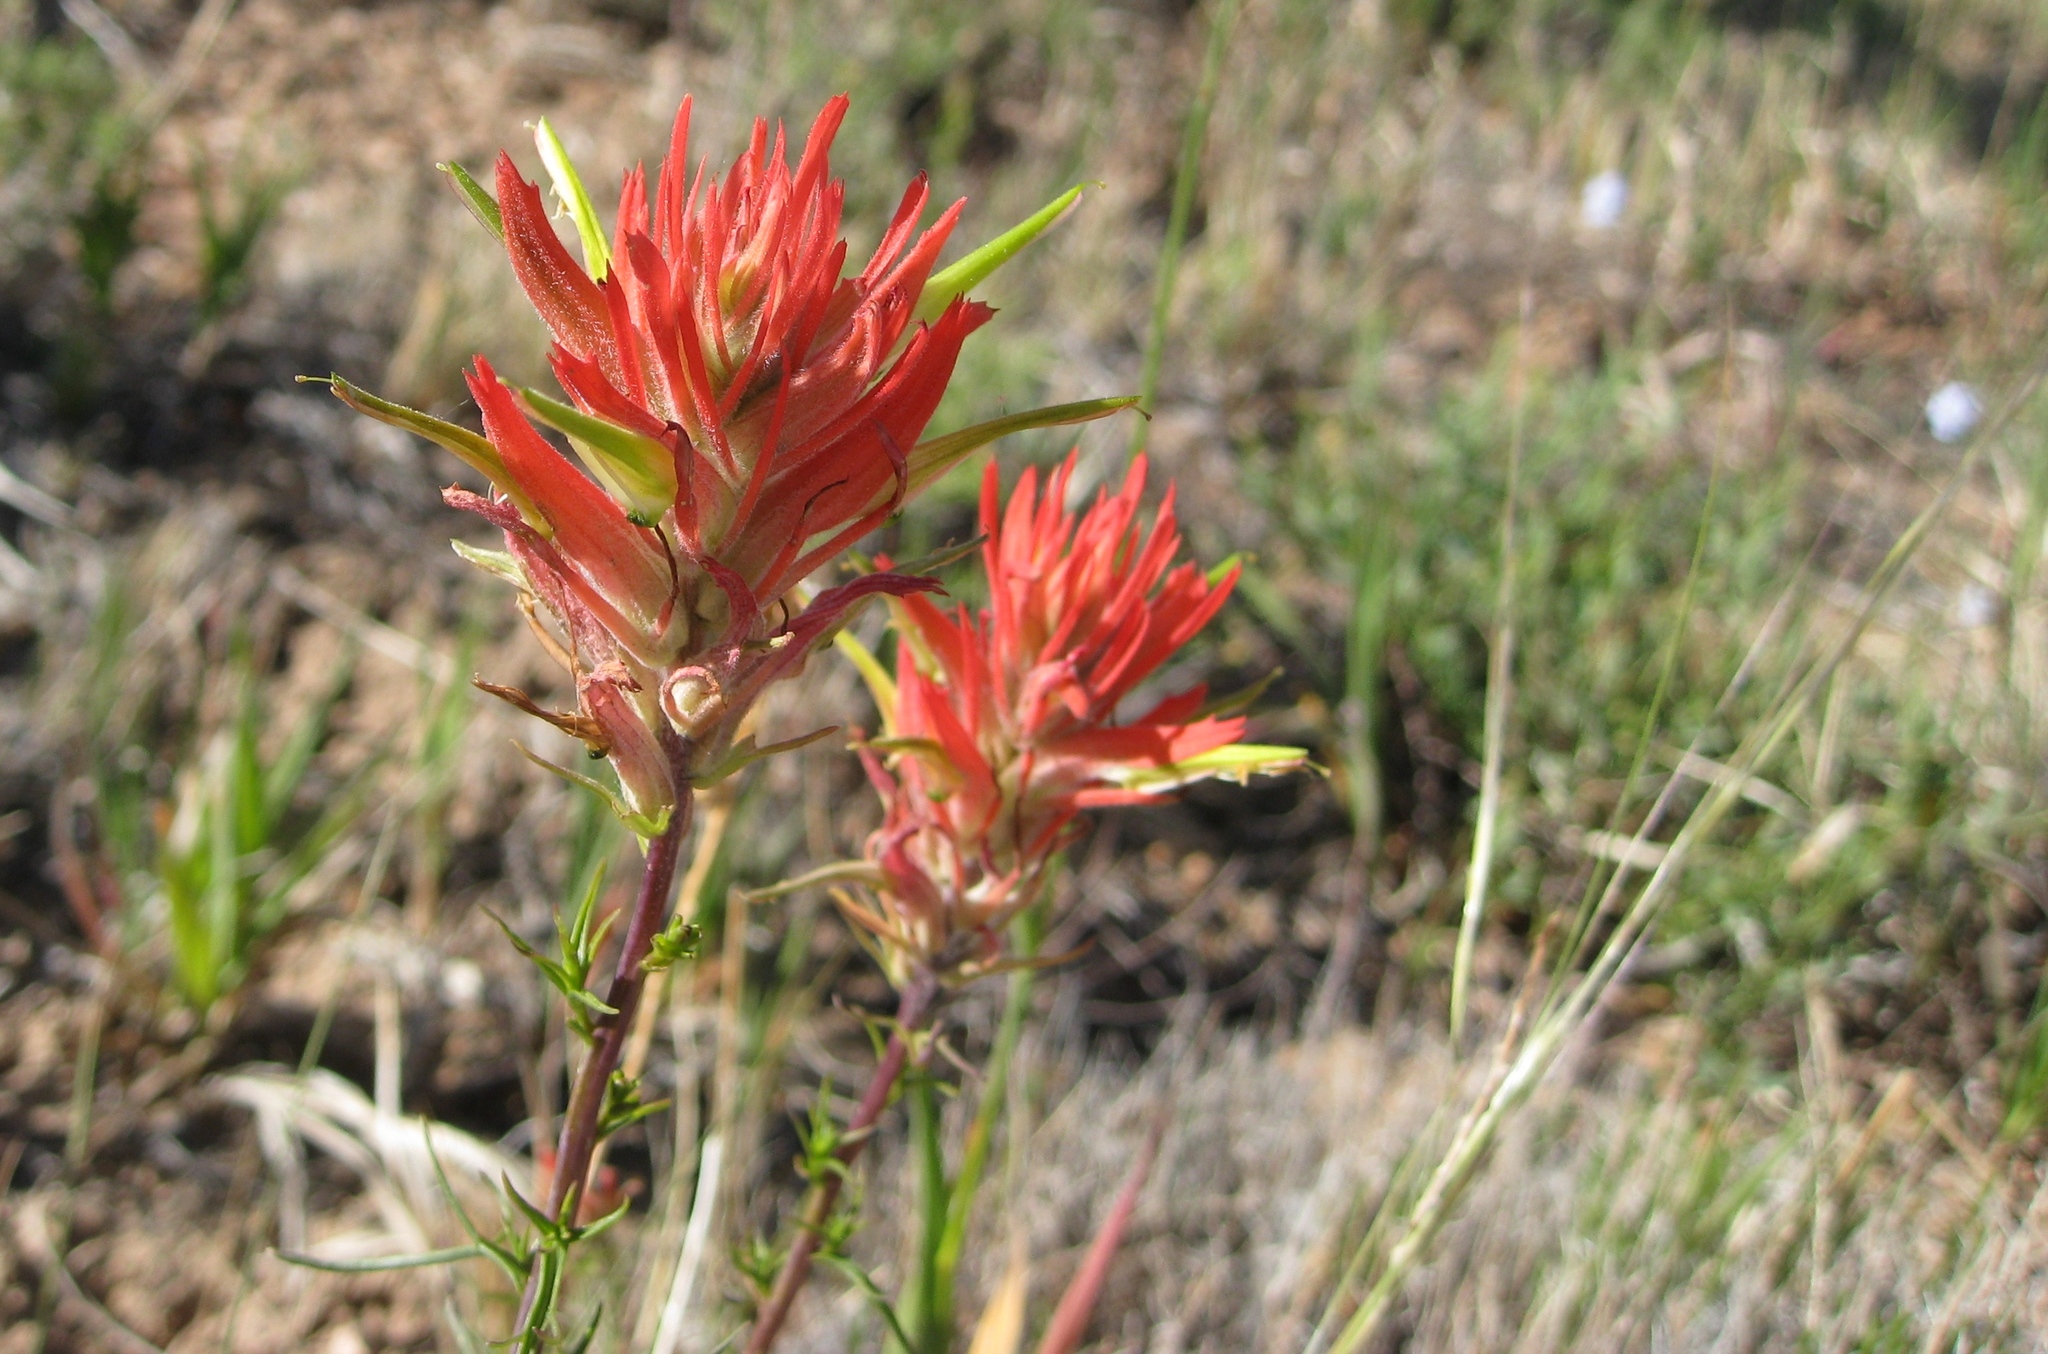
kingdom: Plantae
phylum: Tracheophyta
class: Magnoliopsida
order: Lamiales
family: Orobanchaceae
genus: Castilleja
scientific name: Castilleja linariifolia
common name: Wyoming paintbrush
